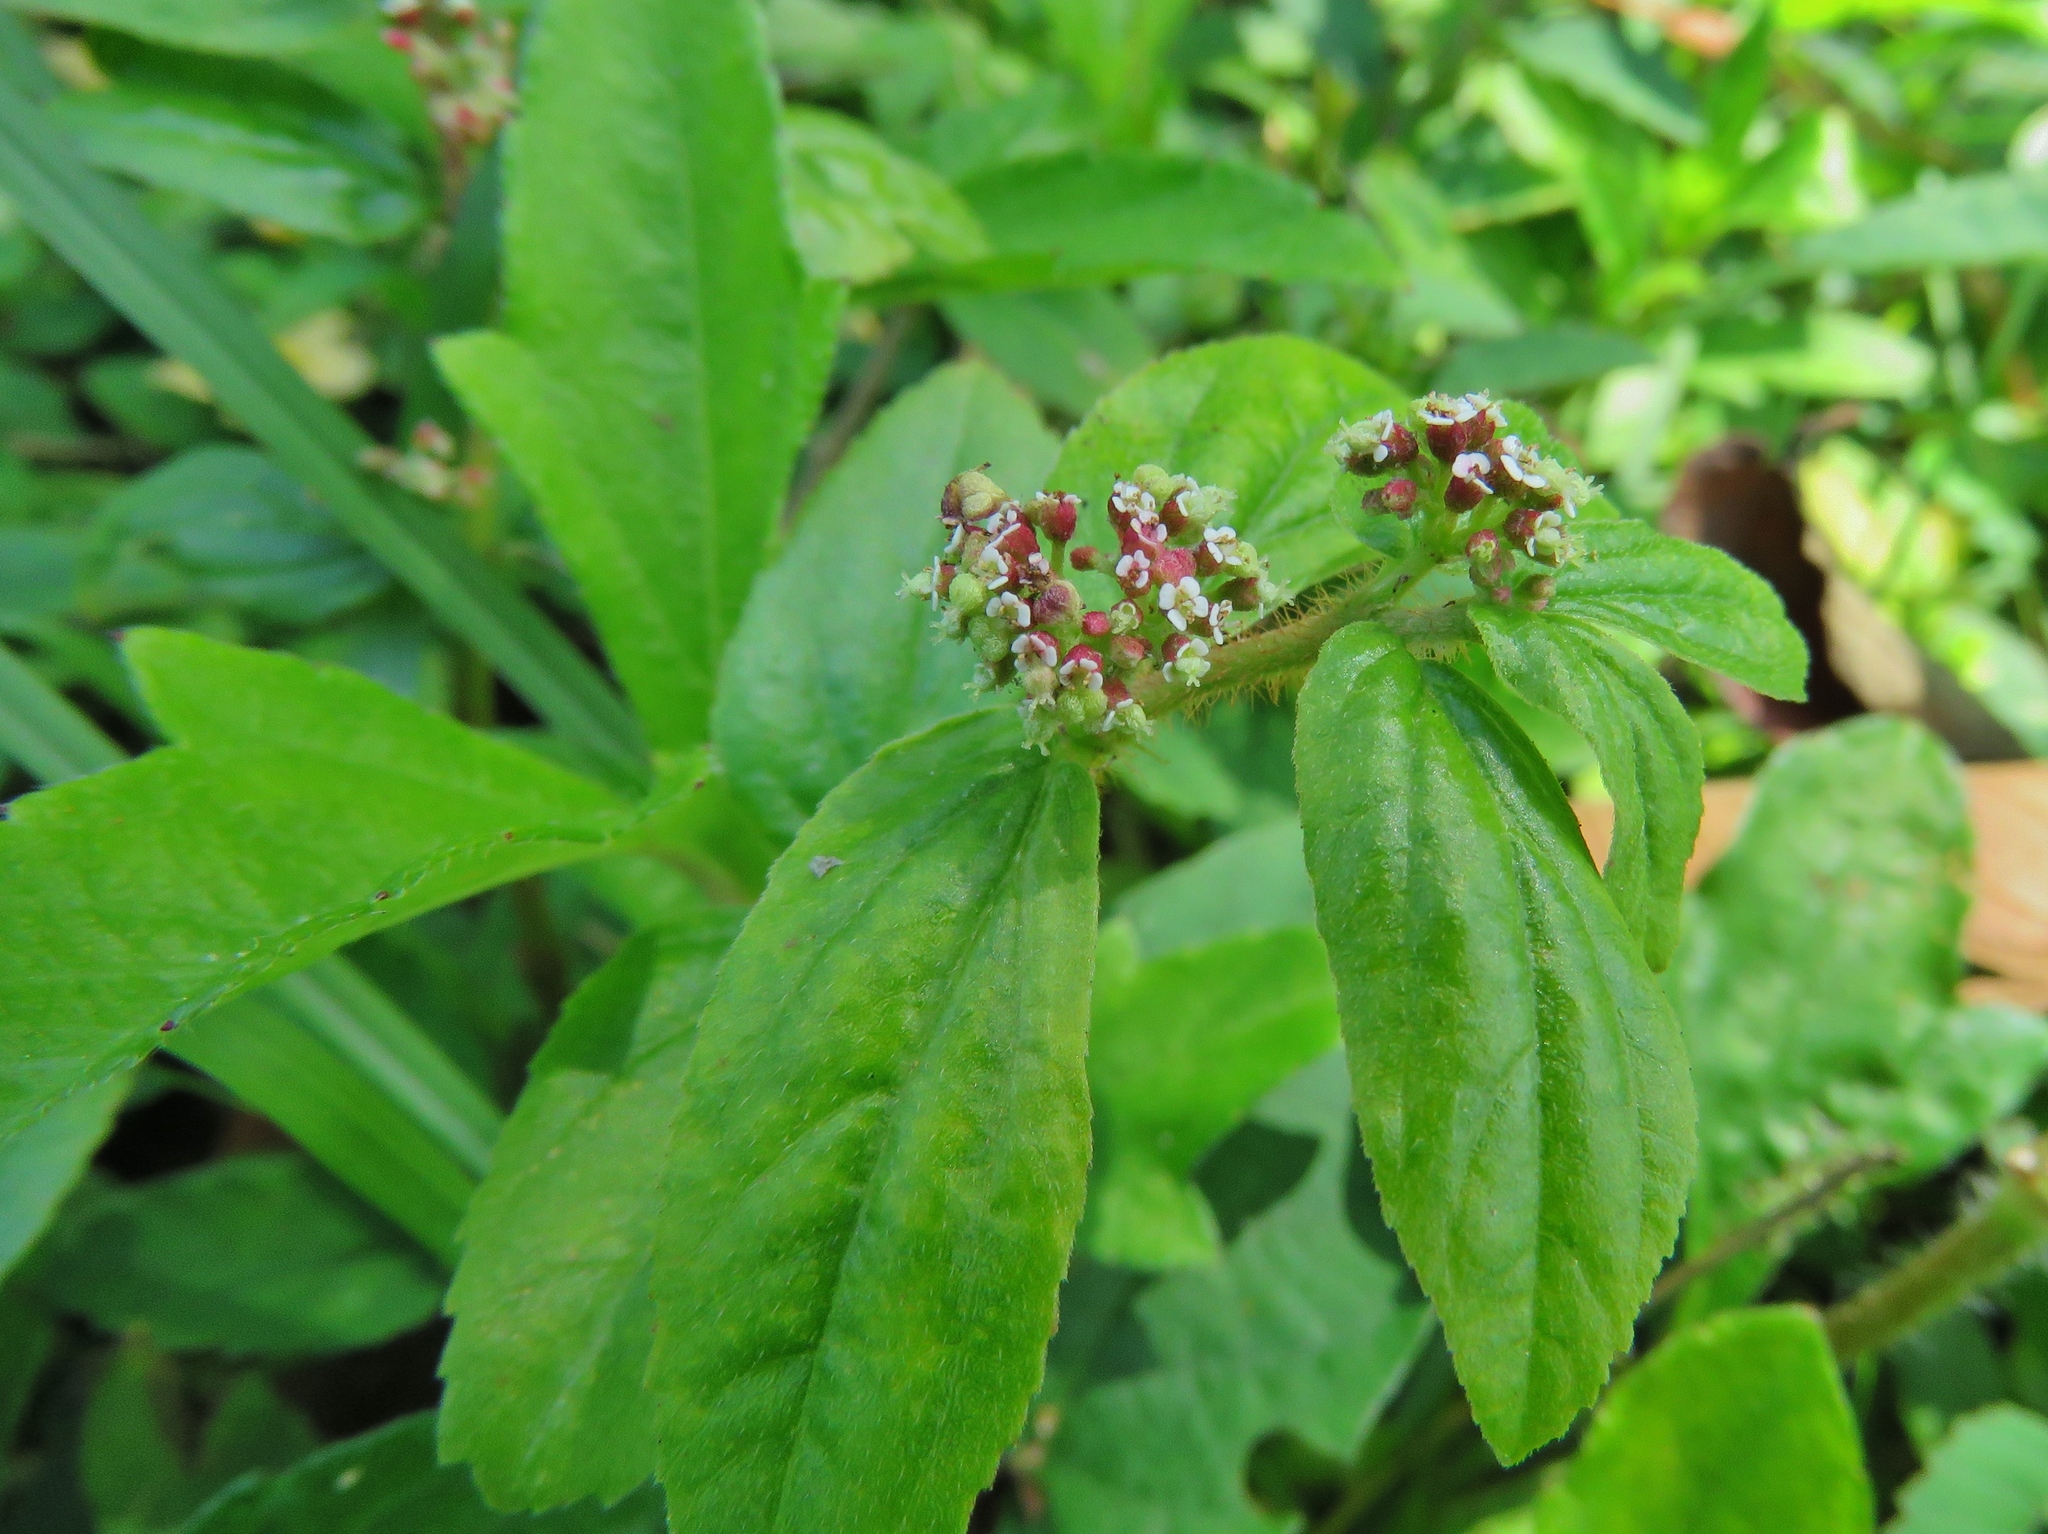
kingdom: Plantae
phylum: Tracheophyta
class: Magnoliopsida
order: Malpighiales
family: Euphorbiaceae
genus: Euphorbia
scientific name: Euphorbia hirta
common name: Pillpod sandmat
